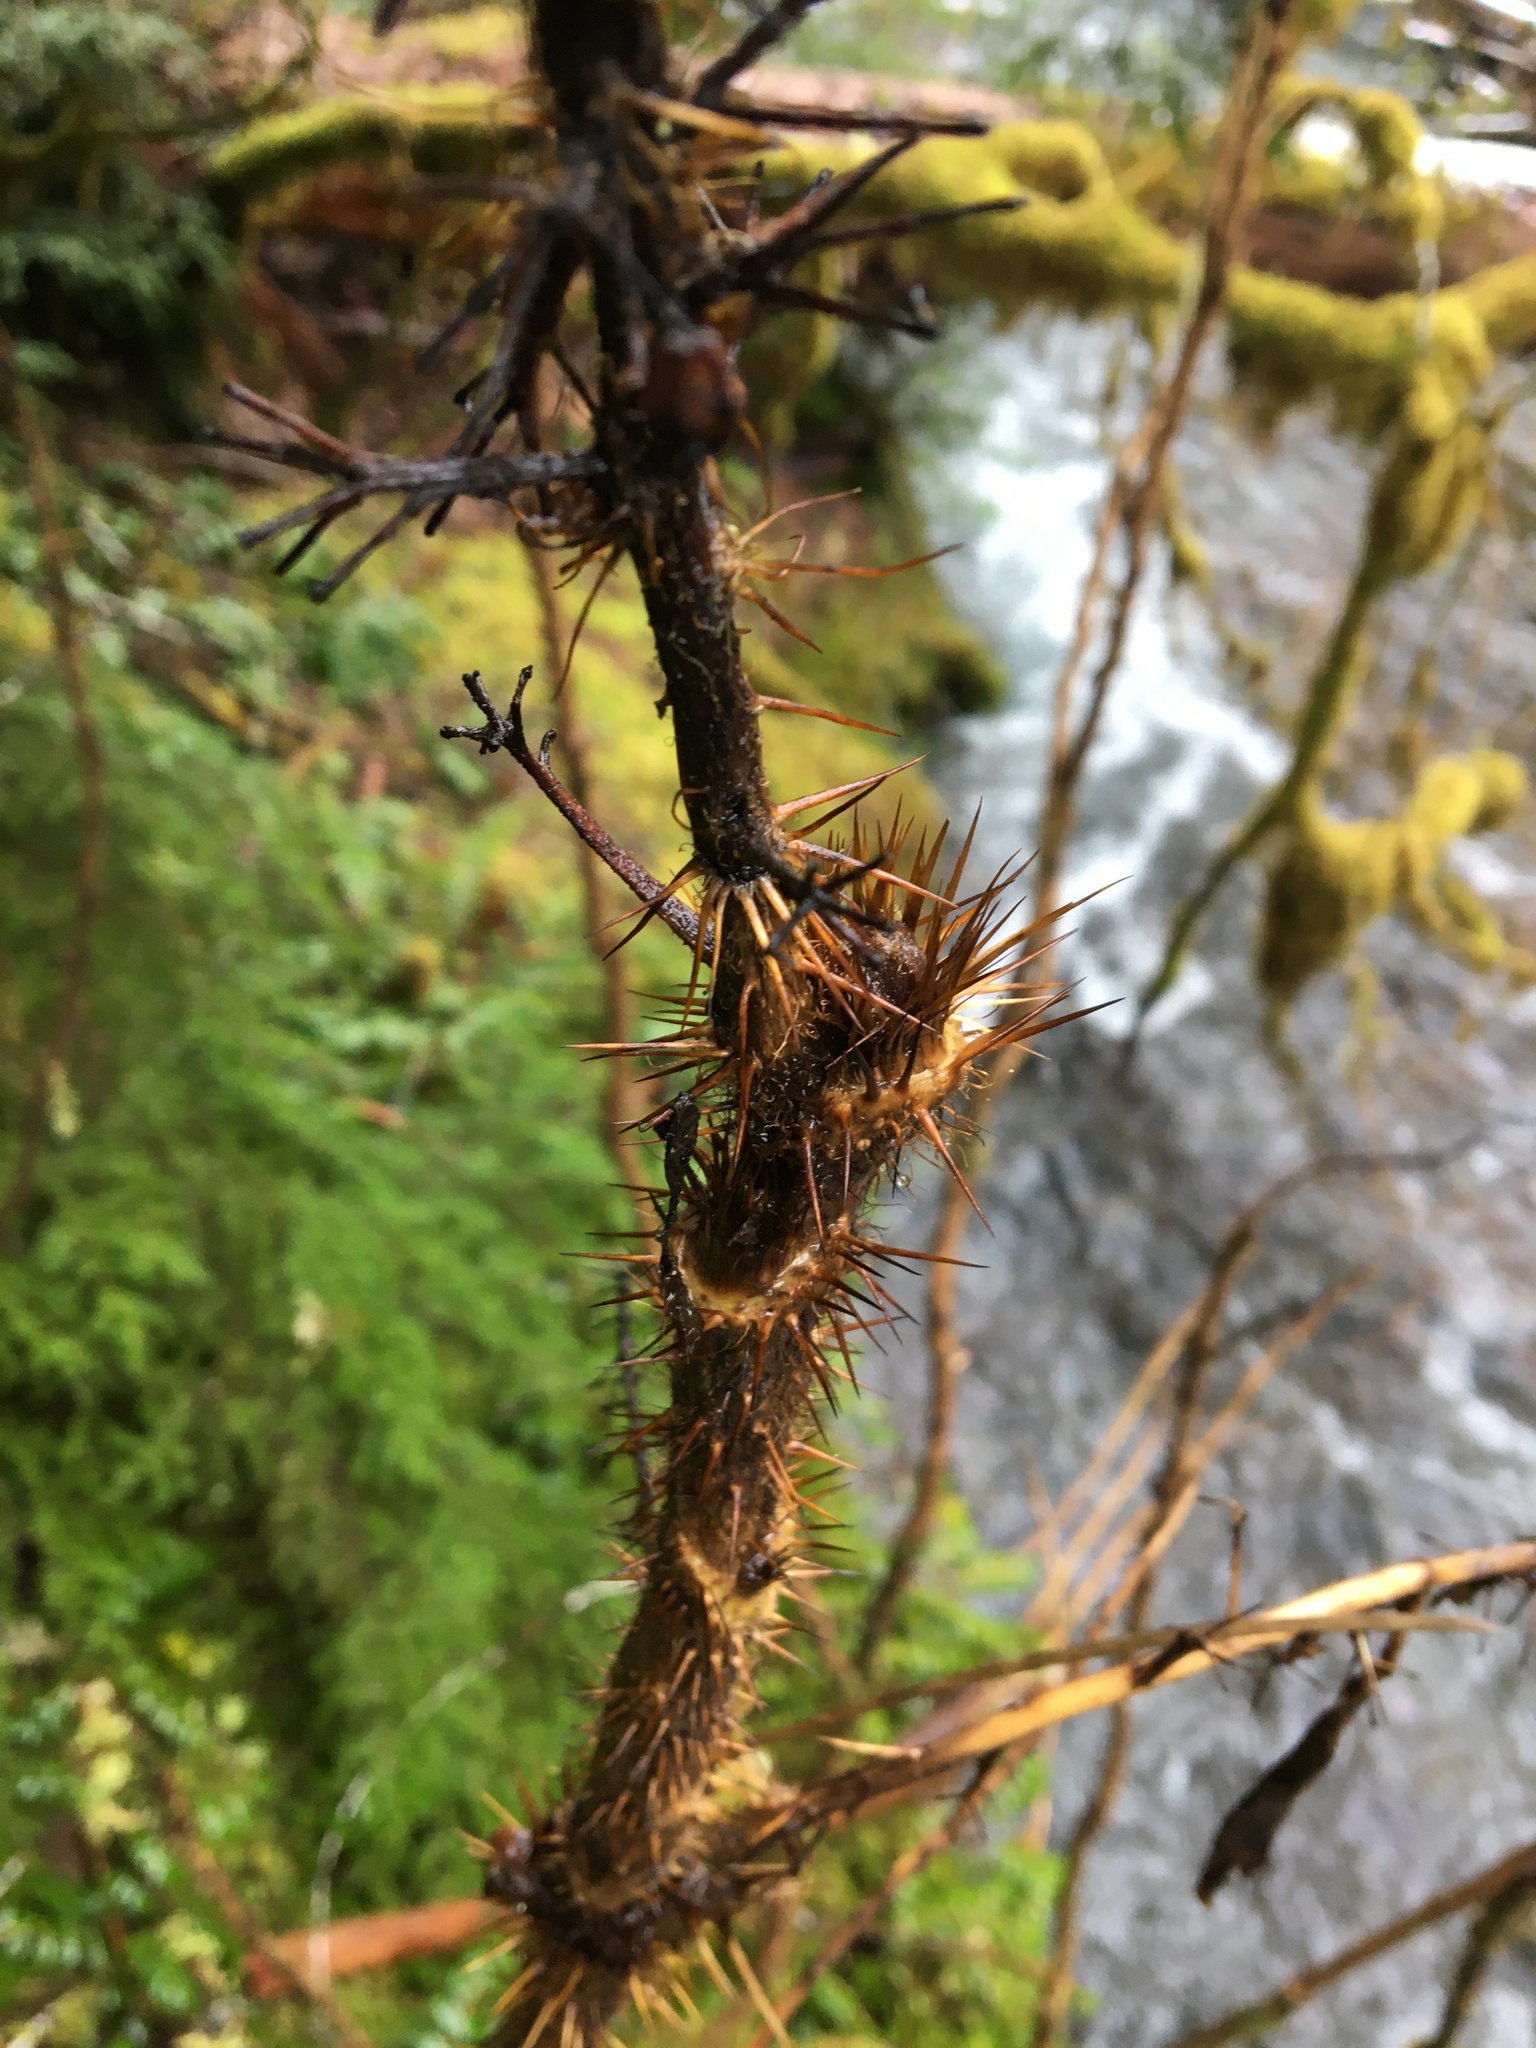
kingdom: Plantae
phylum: Tracheophyta
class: Magnoliopsida
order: Apiales
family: Araliaceae
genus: Oplopanax
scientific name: Oplopanax horridus
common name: Devil's walking-stick
